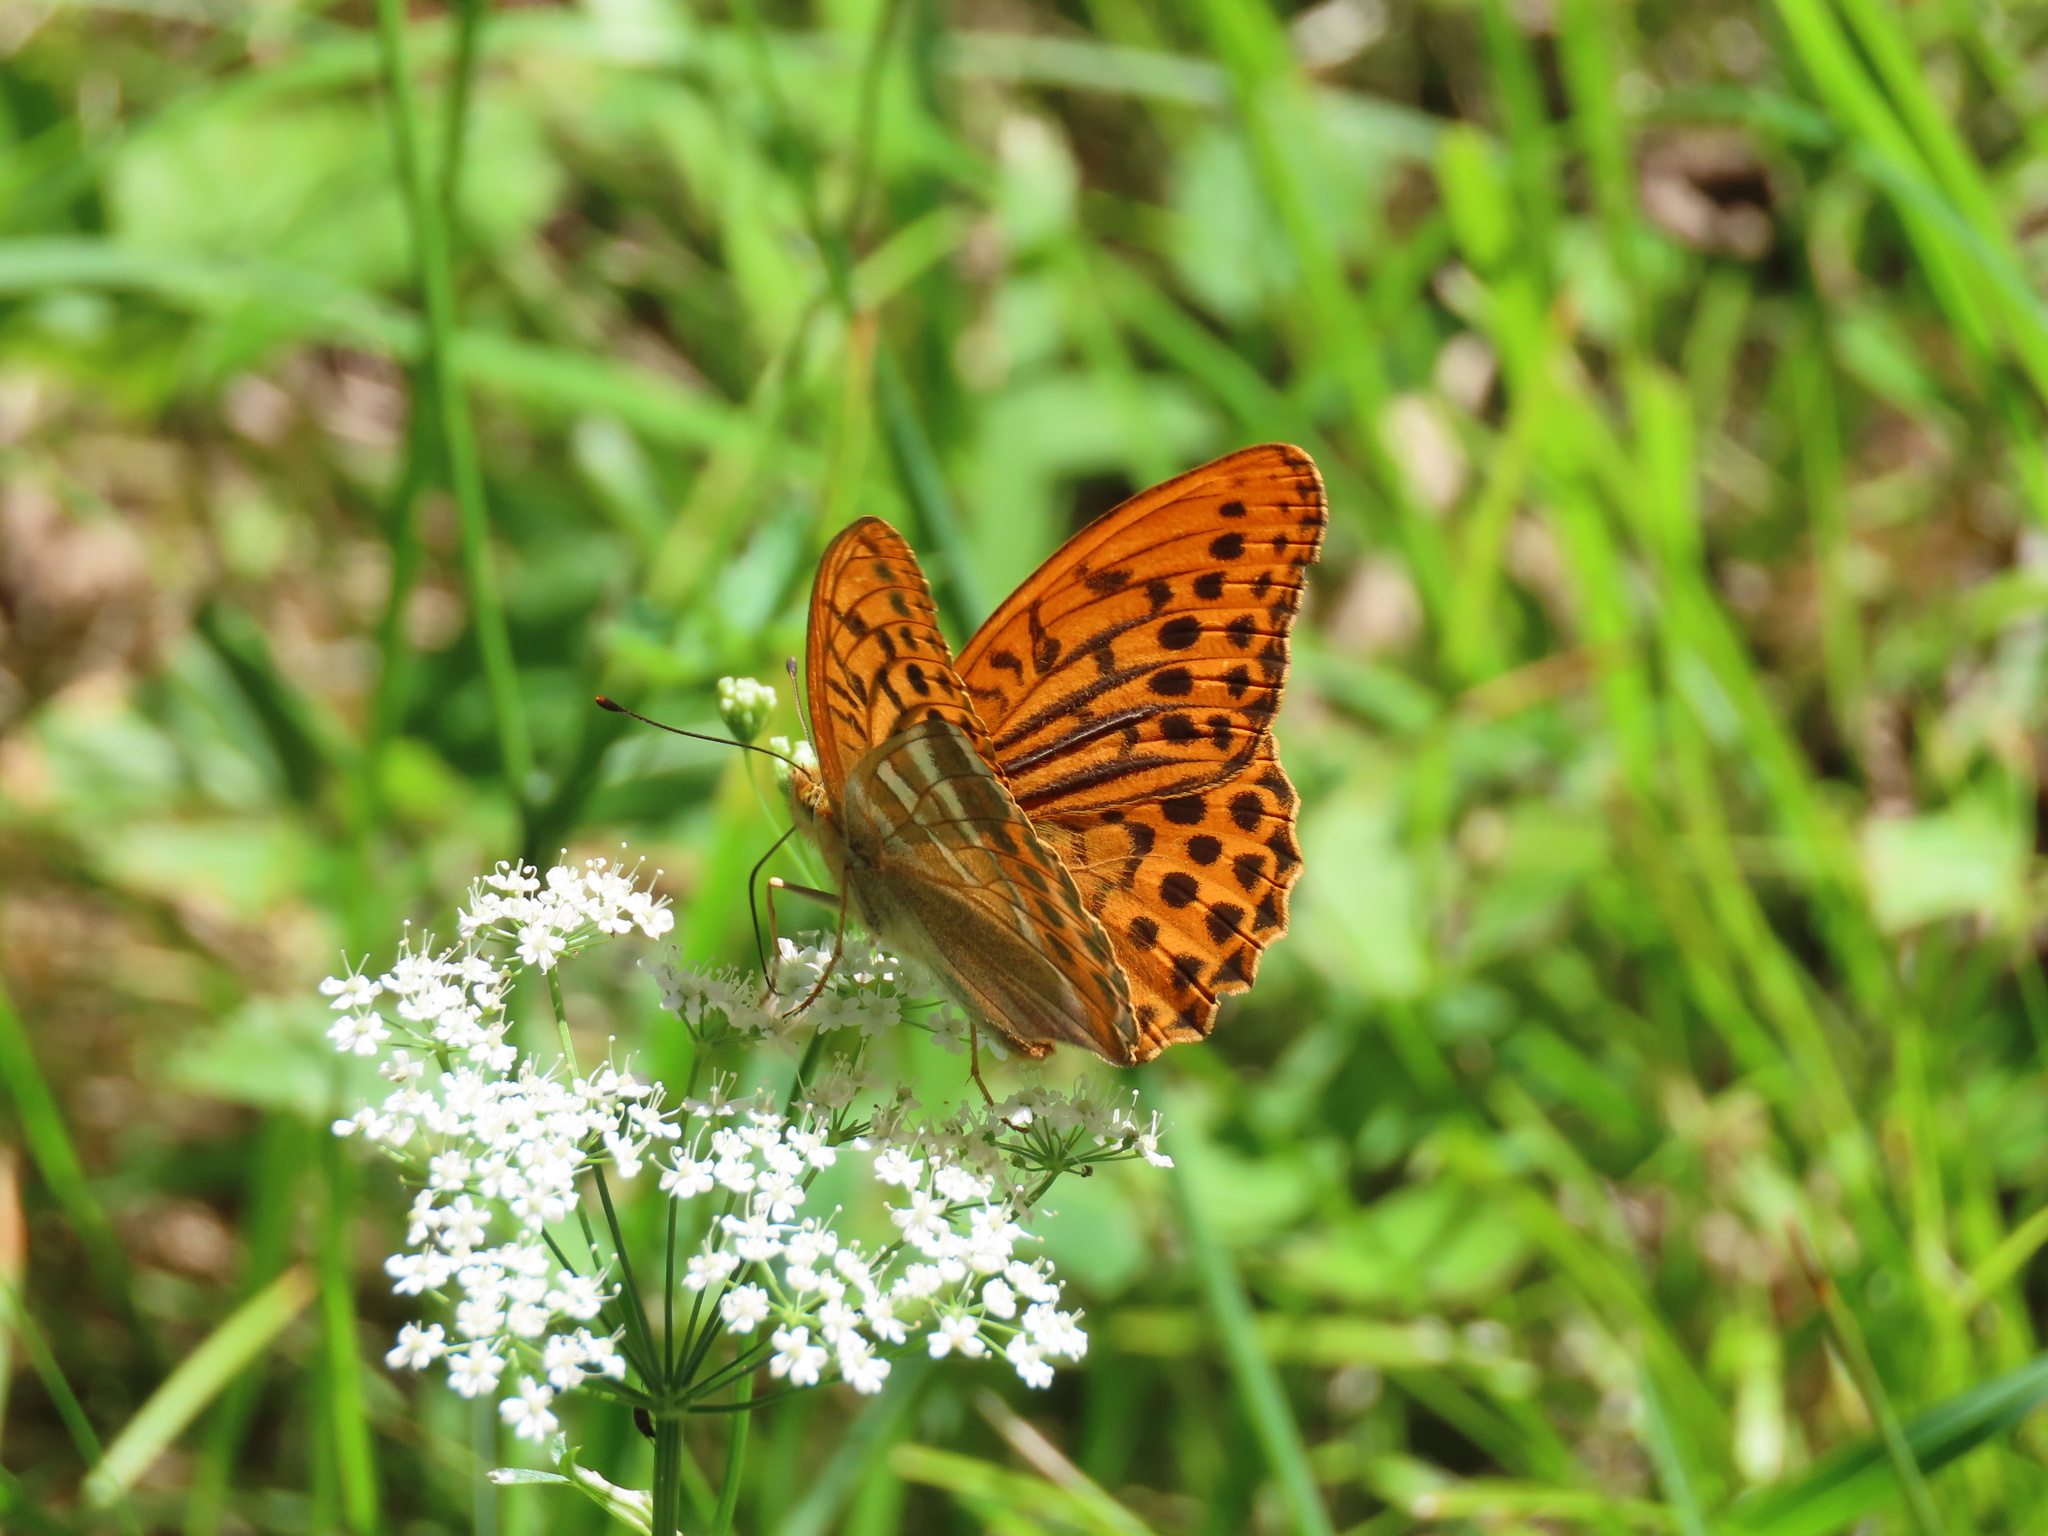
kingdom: Animalia
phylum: Arthropoda
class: Insecta
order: Lepidoptera
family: Nymphalidae
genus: Argynnis
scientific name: Argynnis paphia
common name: Silver-washed fritillary
